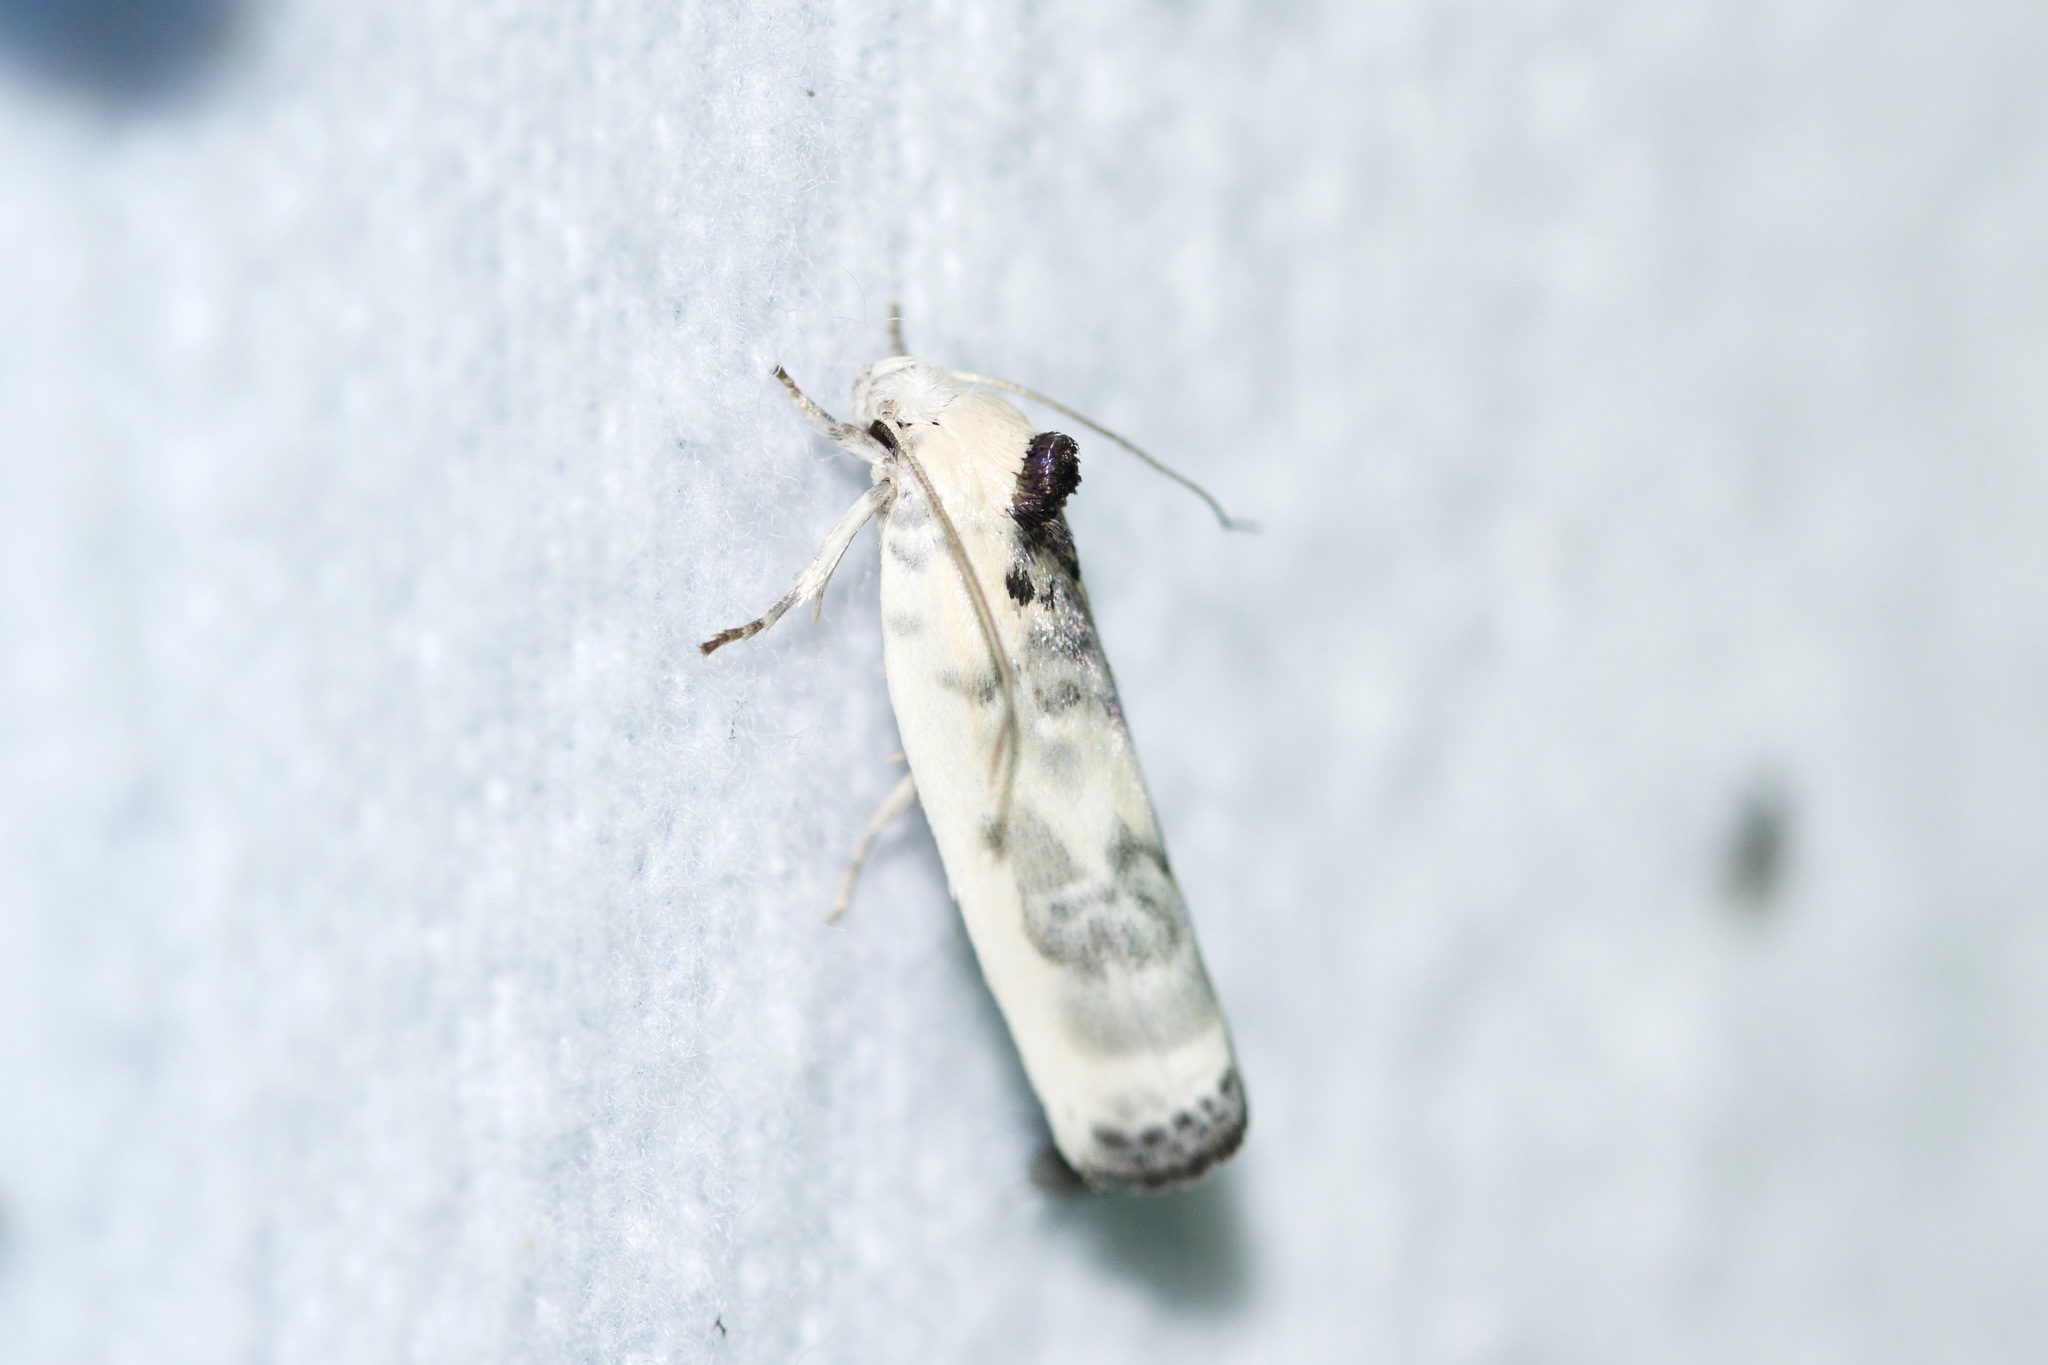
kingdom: Animalia
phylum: Arthropoda
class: Insecta
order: Lepidoptera
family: Depressariidae
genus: Antaeotricha
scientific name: Antaeotricha schlaegeri
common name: Schlaeger's fruitworm moth
